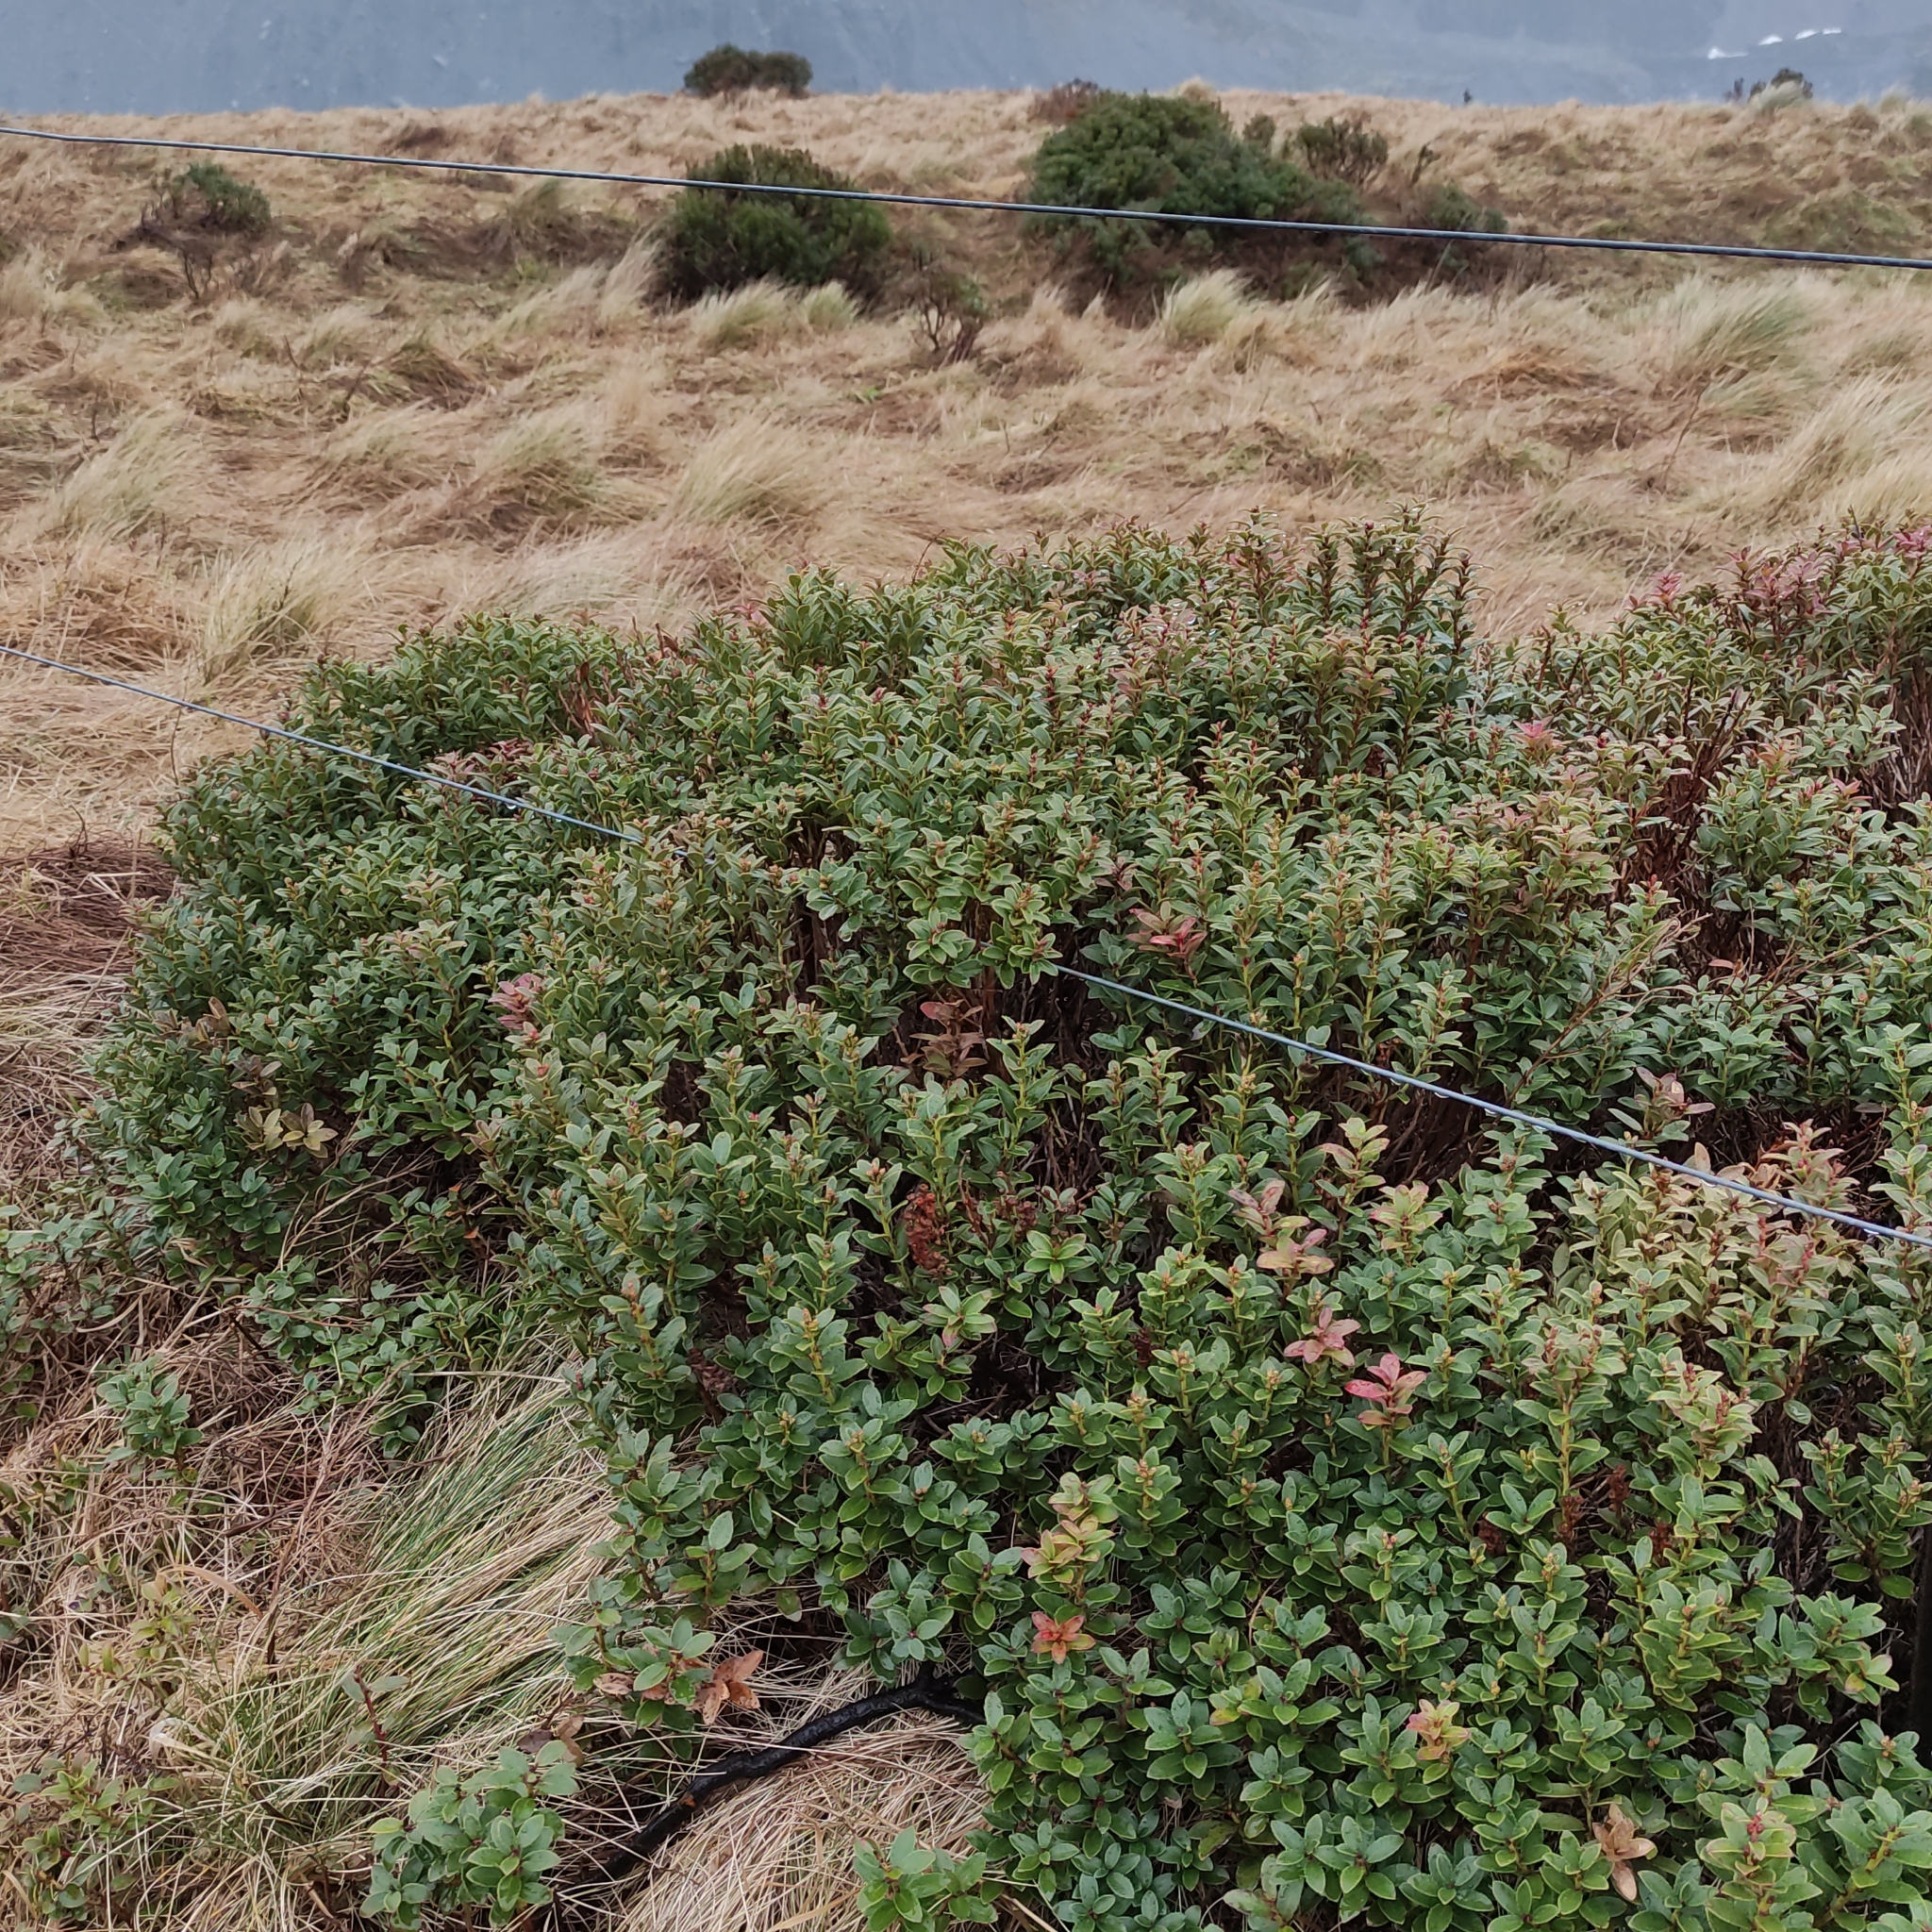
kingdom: Plantae
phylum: Tracheophyta
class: Magnoliopsida
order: Ericales
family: Ericaceae
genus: Gaultheria
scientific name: Gaultheria crassa
